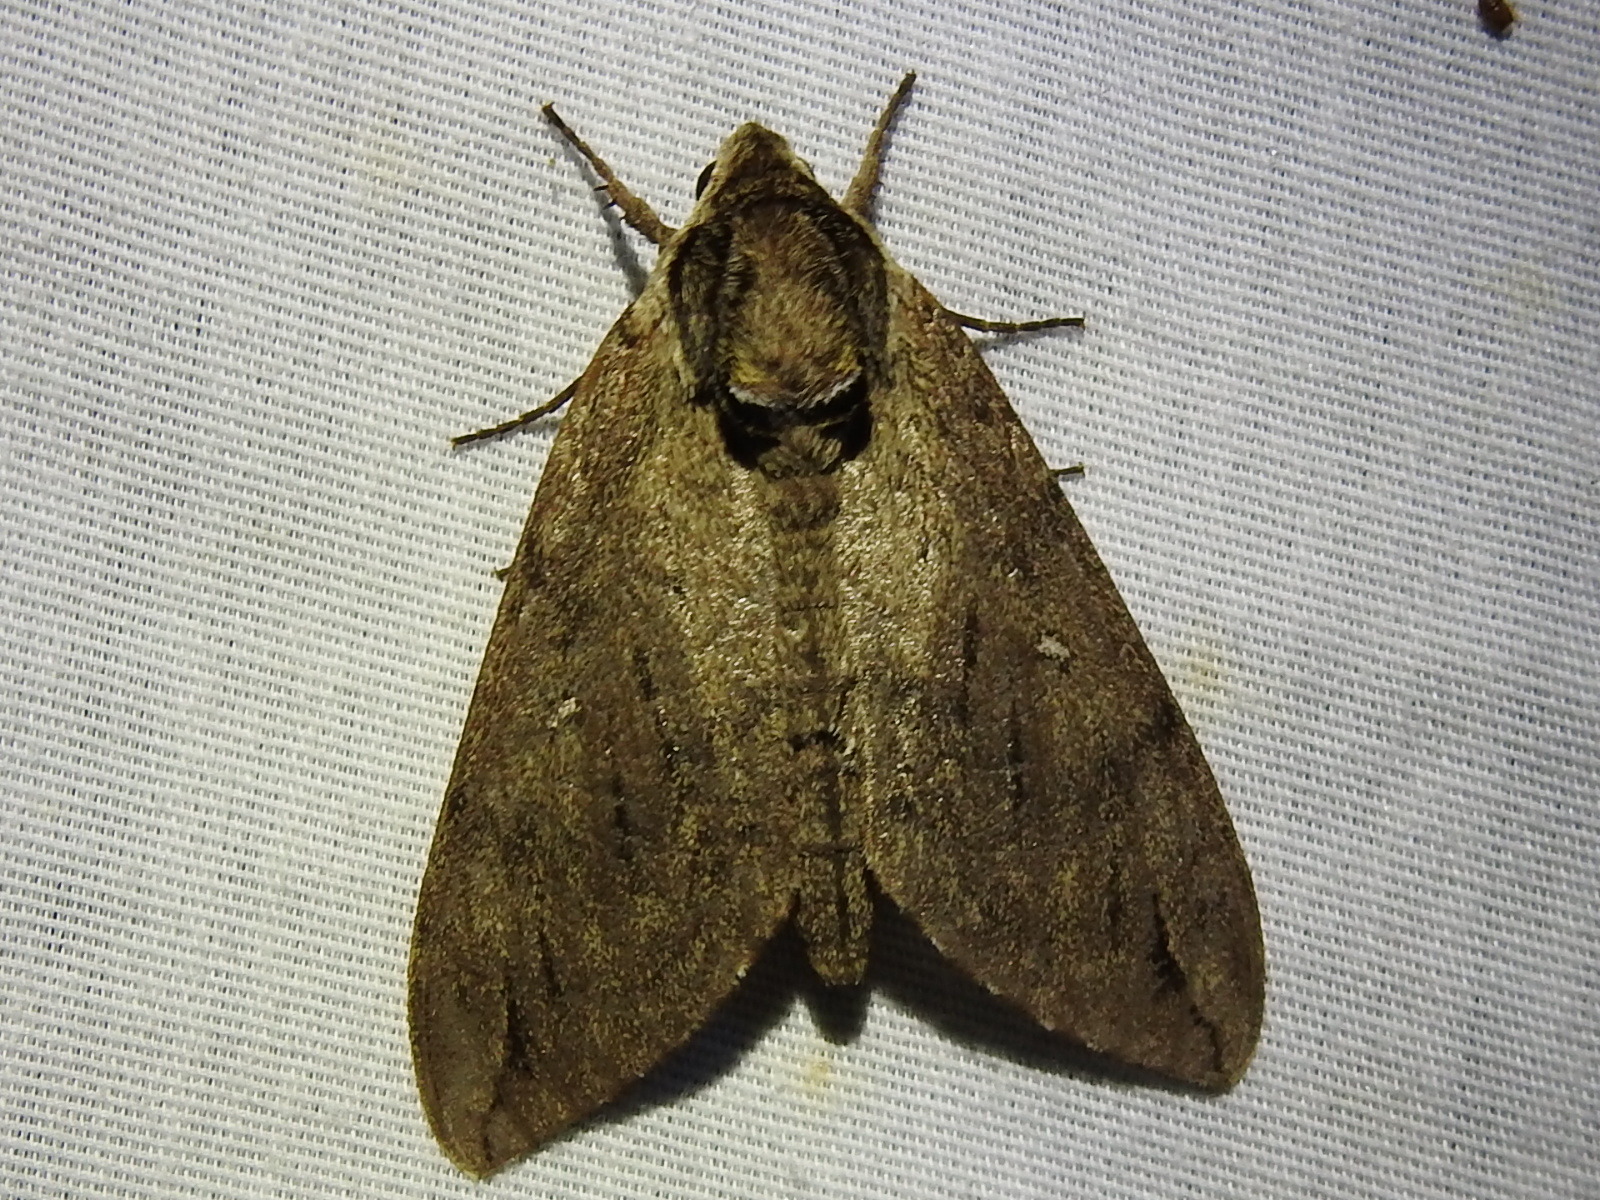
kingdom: Animalia
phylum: Arthropoda
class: Insecta
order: Lepidoptera
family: Sphingidae
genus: Ceratomia
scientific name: Ceratomia catalpae
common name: Catalpa hornworm
